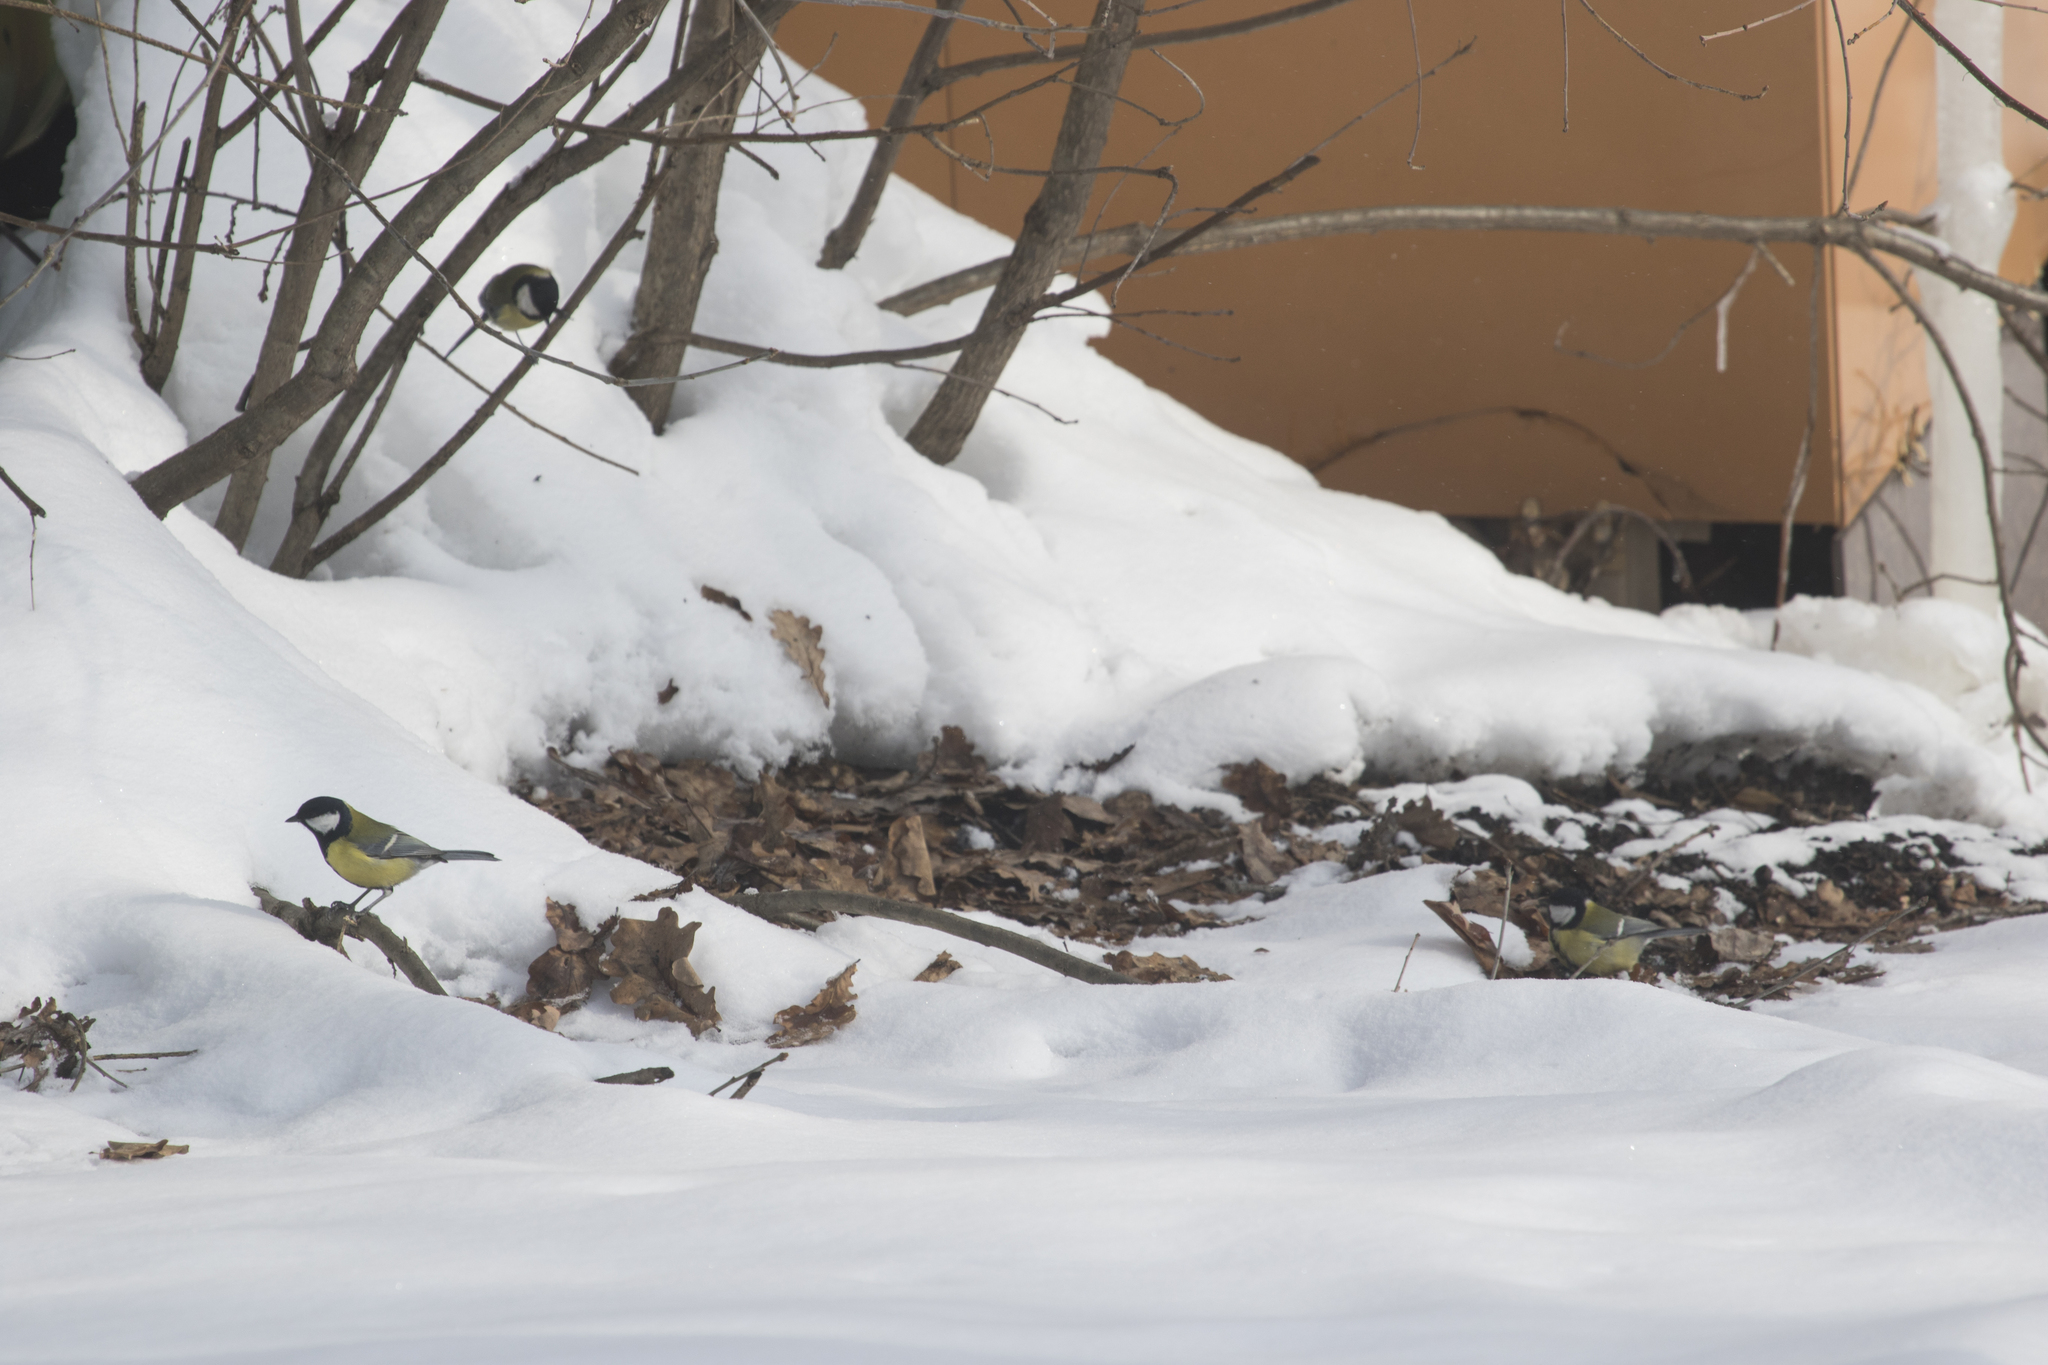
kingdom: Animalia
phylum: Chordata
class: Aves
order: Passeriformes
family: Paridae
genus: Parus
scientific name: Parus major
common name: Great tit
